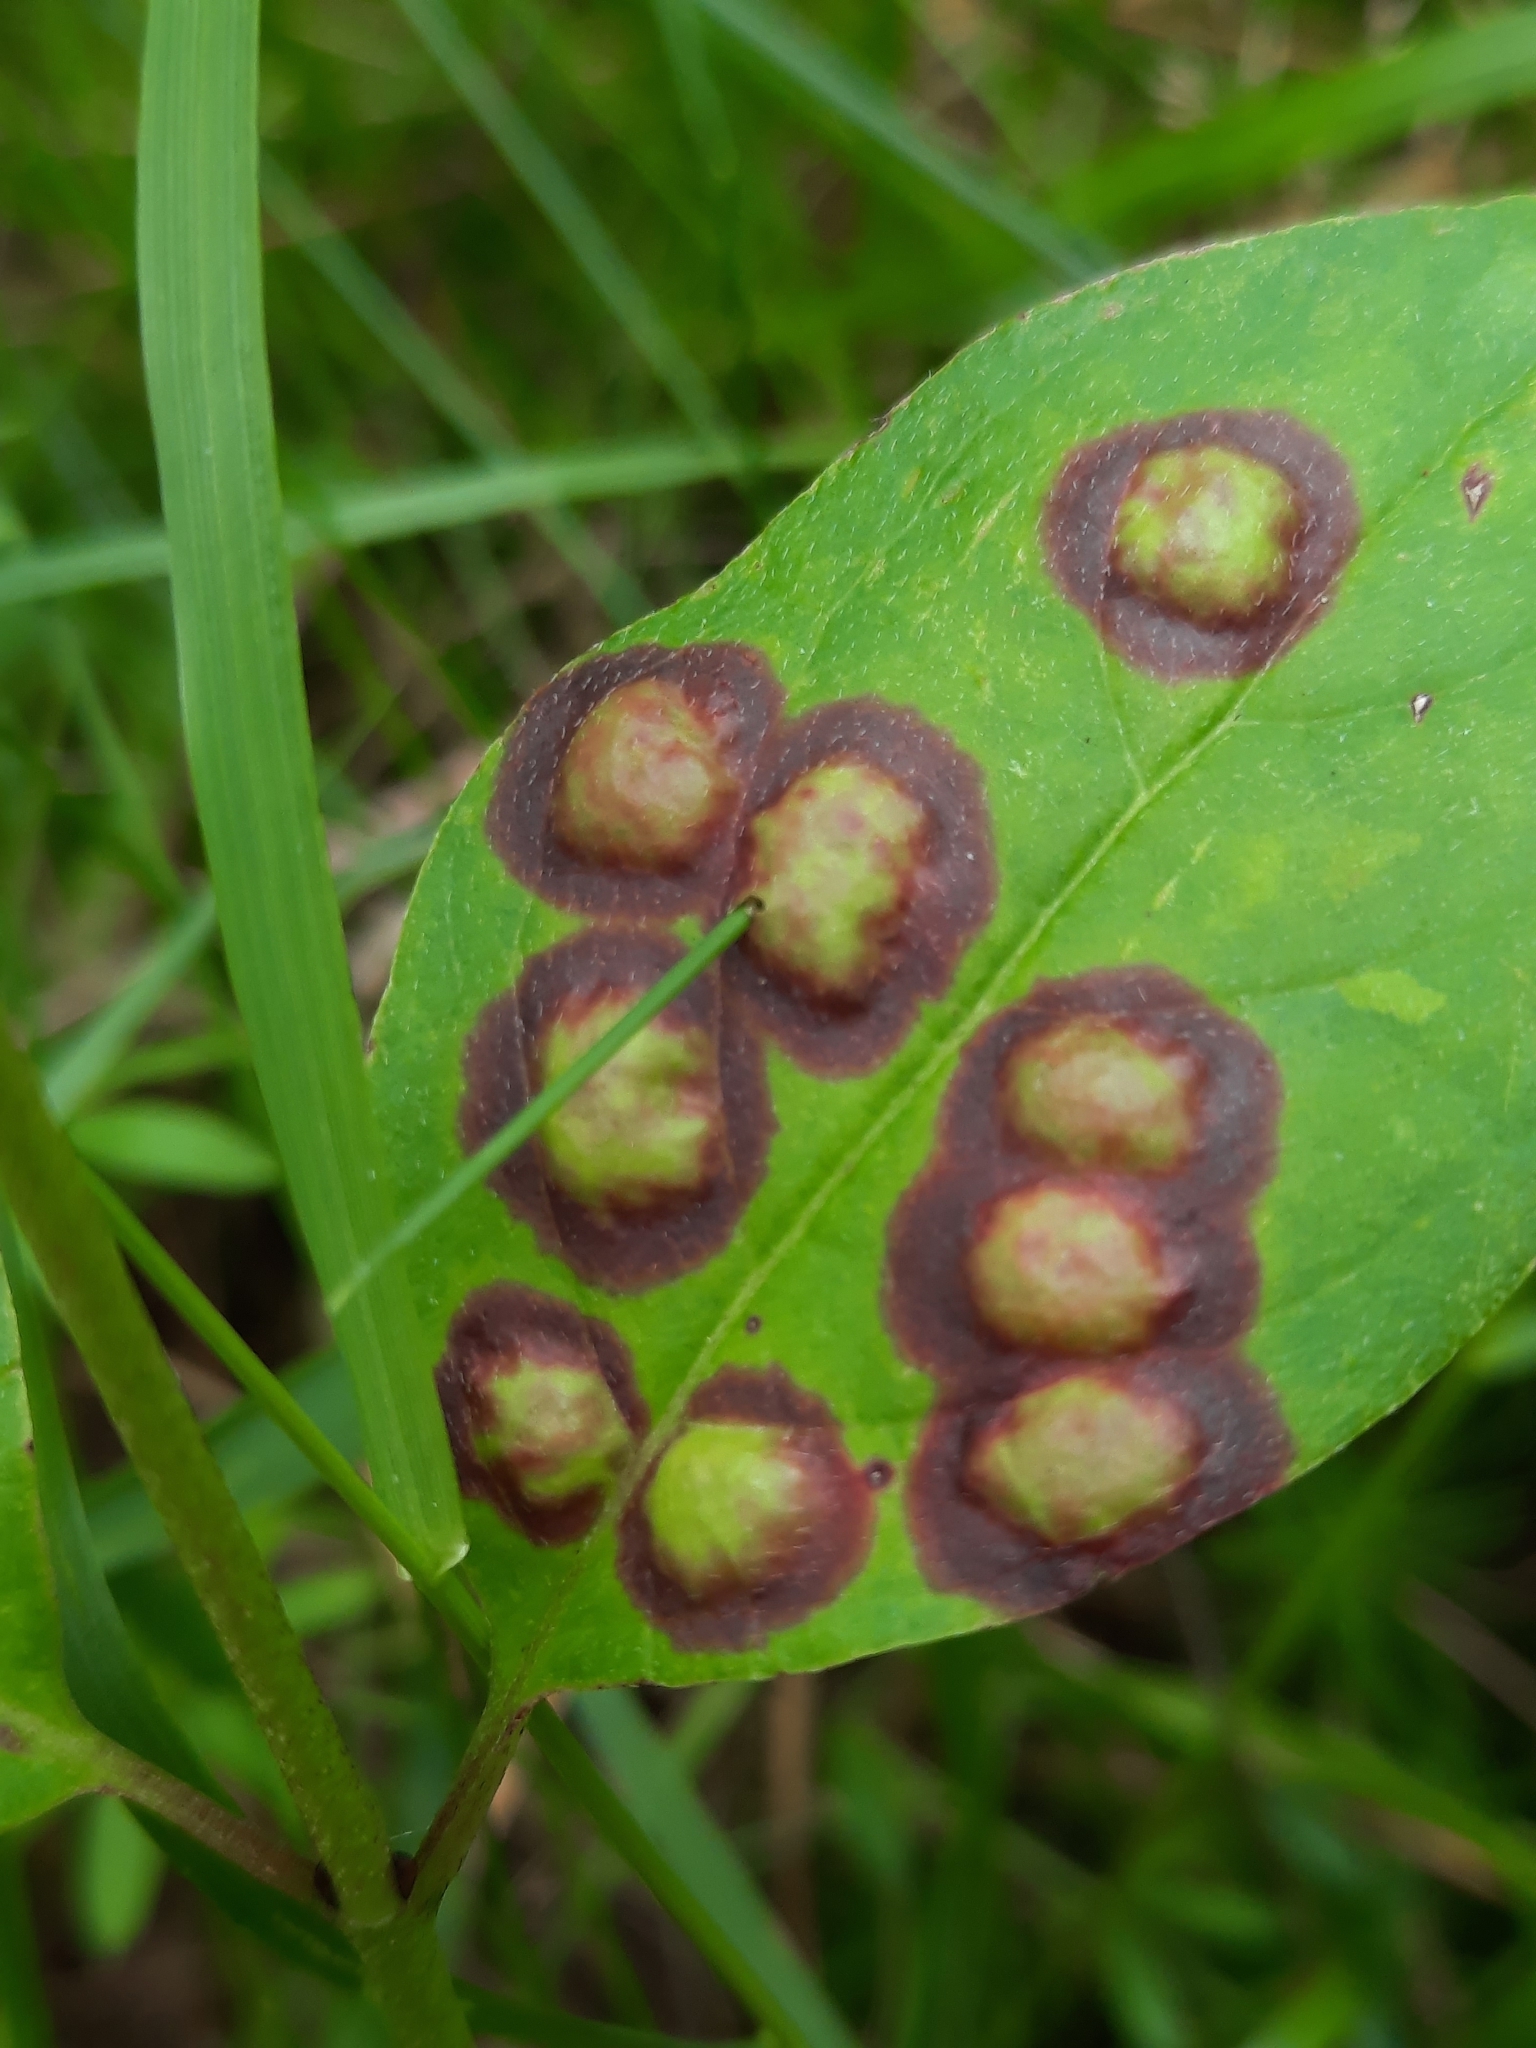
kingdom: Animalia
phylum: Arthropoda
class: Insecta
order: Diptera
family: Cecidomyiidae
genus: Parallelodiplosis
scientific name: Parallelodiplosis subtruncata
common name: Dogwood eyespot gall midge
